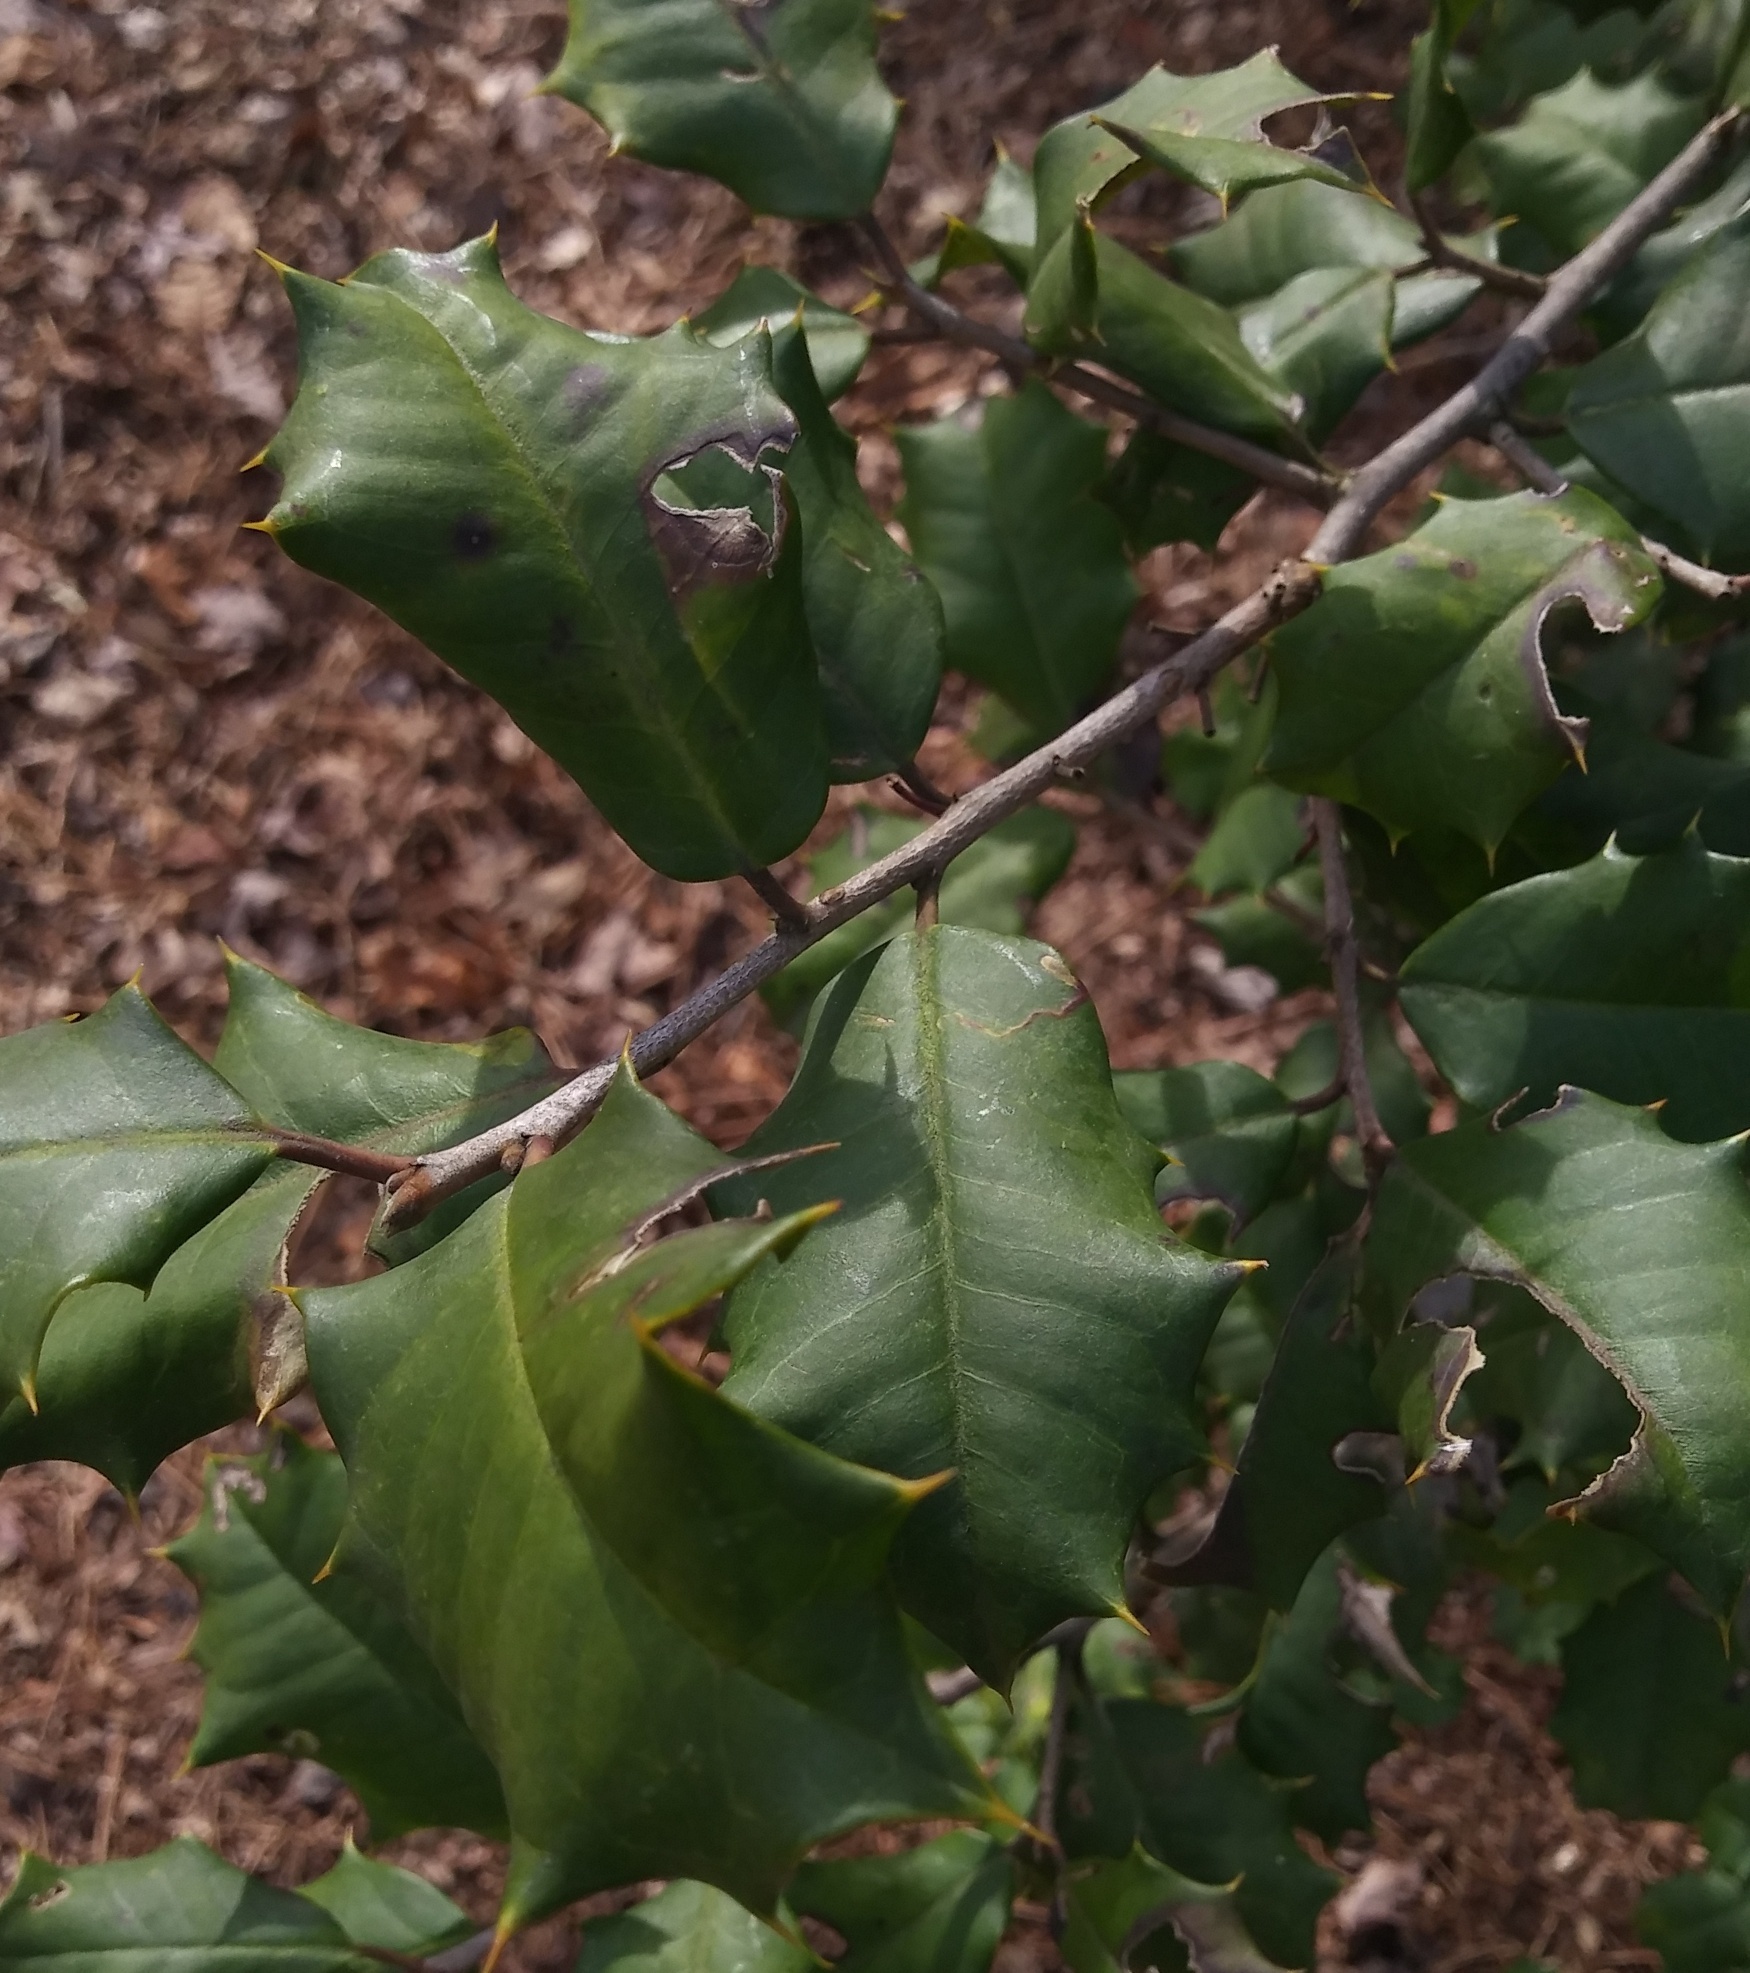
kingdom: Plantae
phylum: Tracheophyta
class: Magnoliopsida
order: Aquifoliales
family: Aquifoliaceae
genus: Ilex
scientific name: Ilex opaca
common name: American holly
